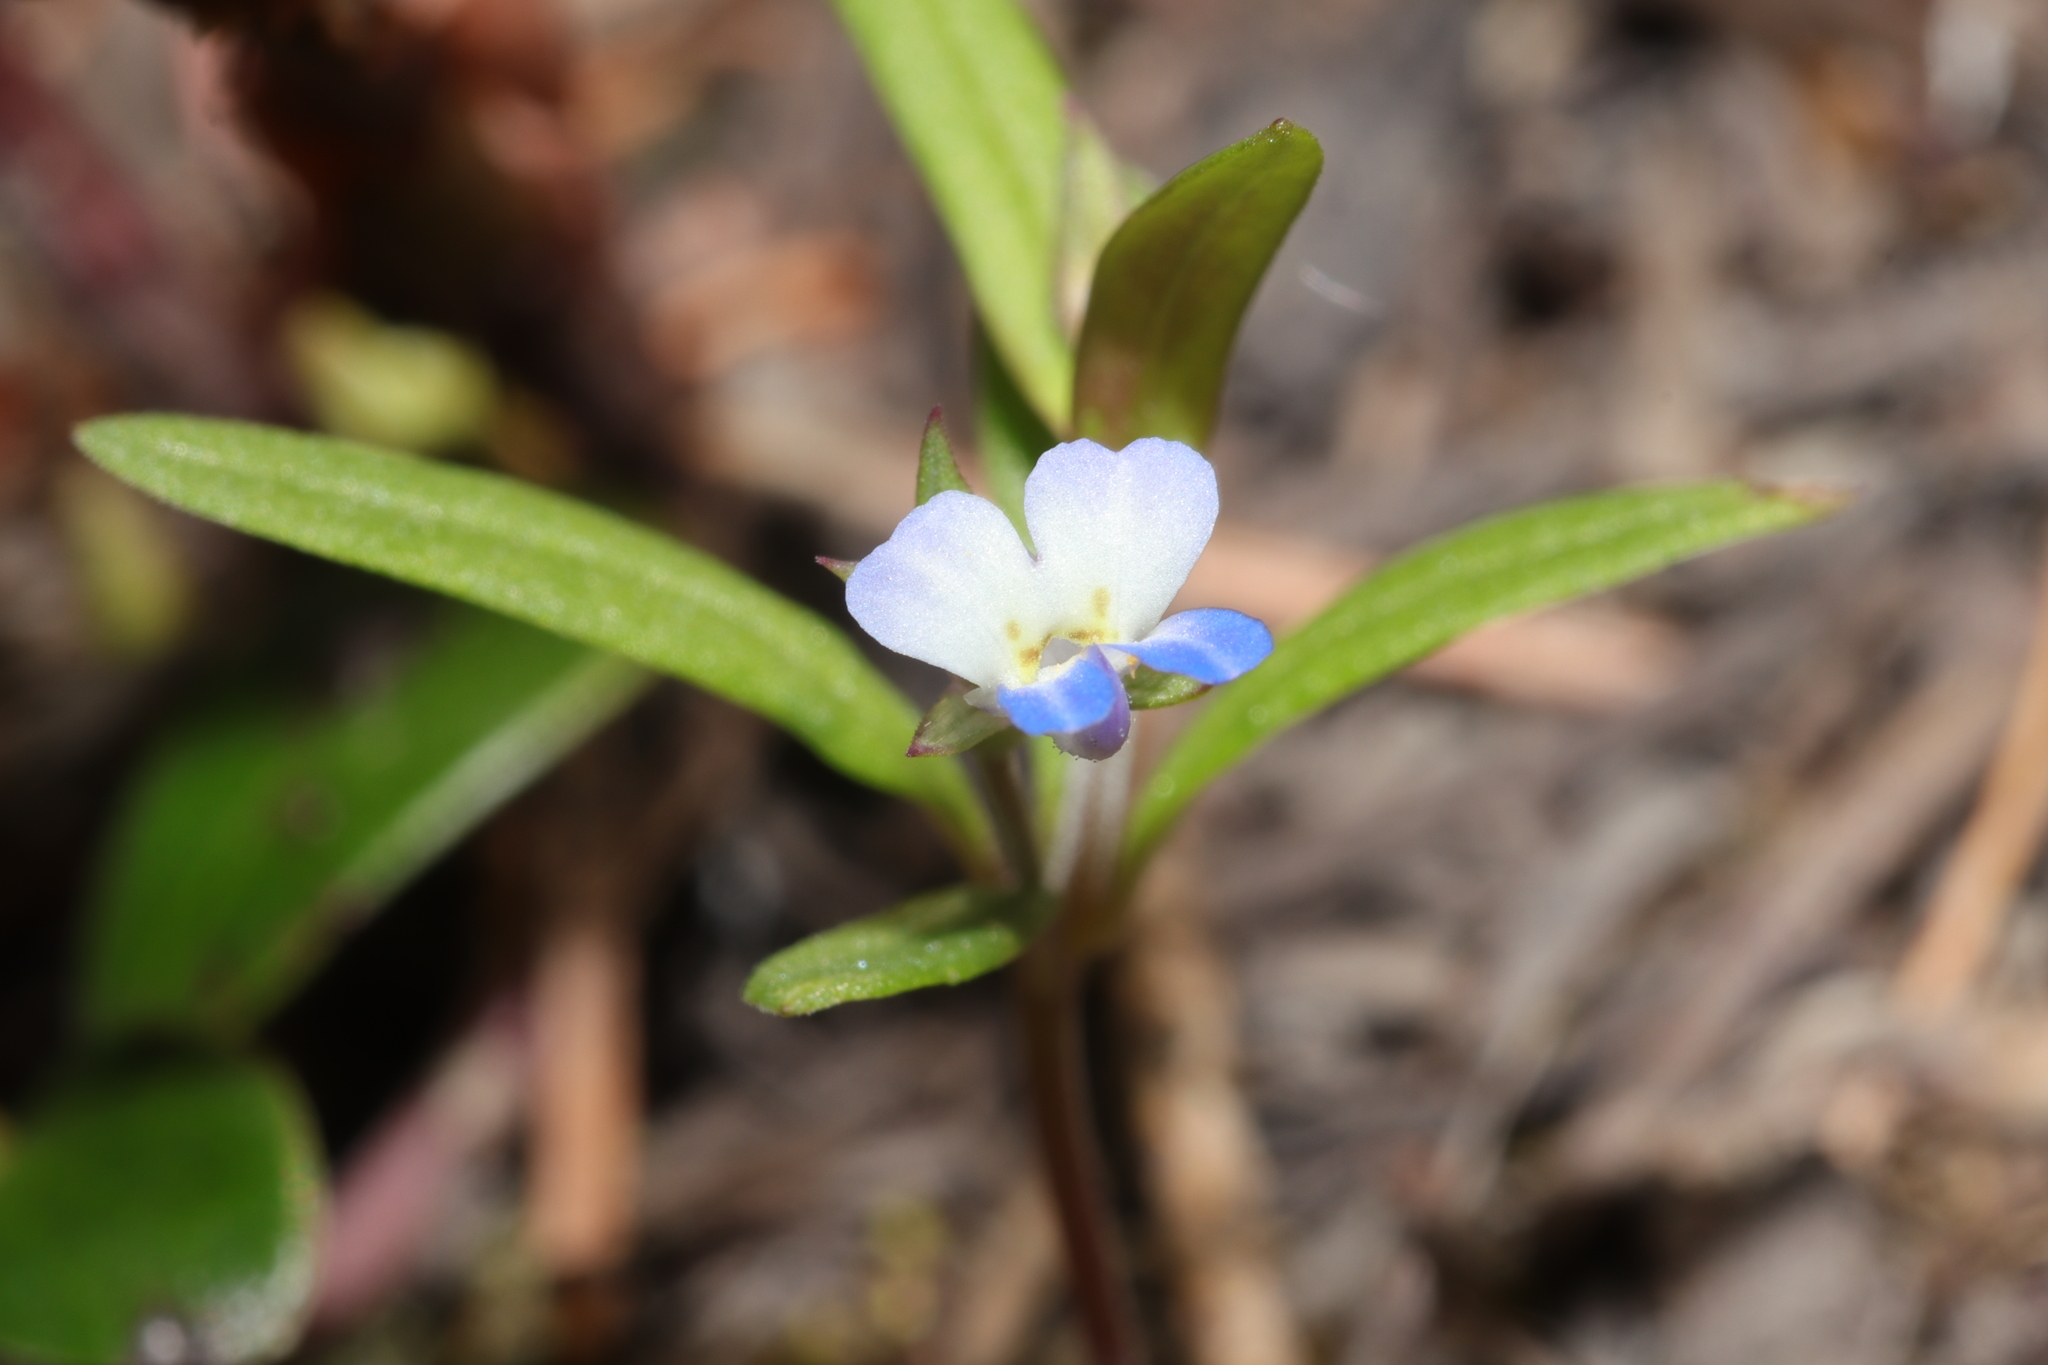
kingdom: Plantae
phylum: Tracheophyta
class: Magnoliopsida
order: Lamiales
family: Plantaginaceae
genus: Collinsia
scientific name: Collinsia parviflora
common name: Blue-lips
